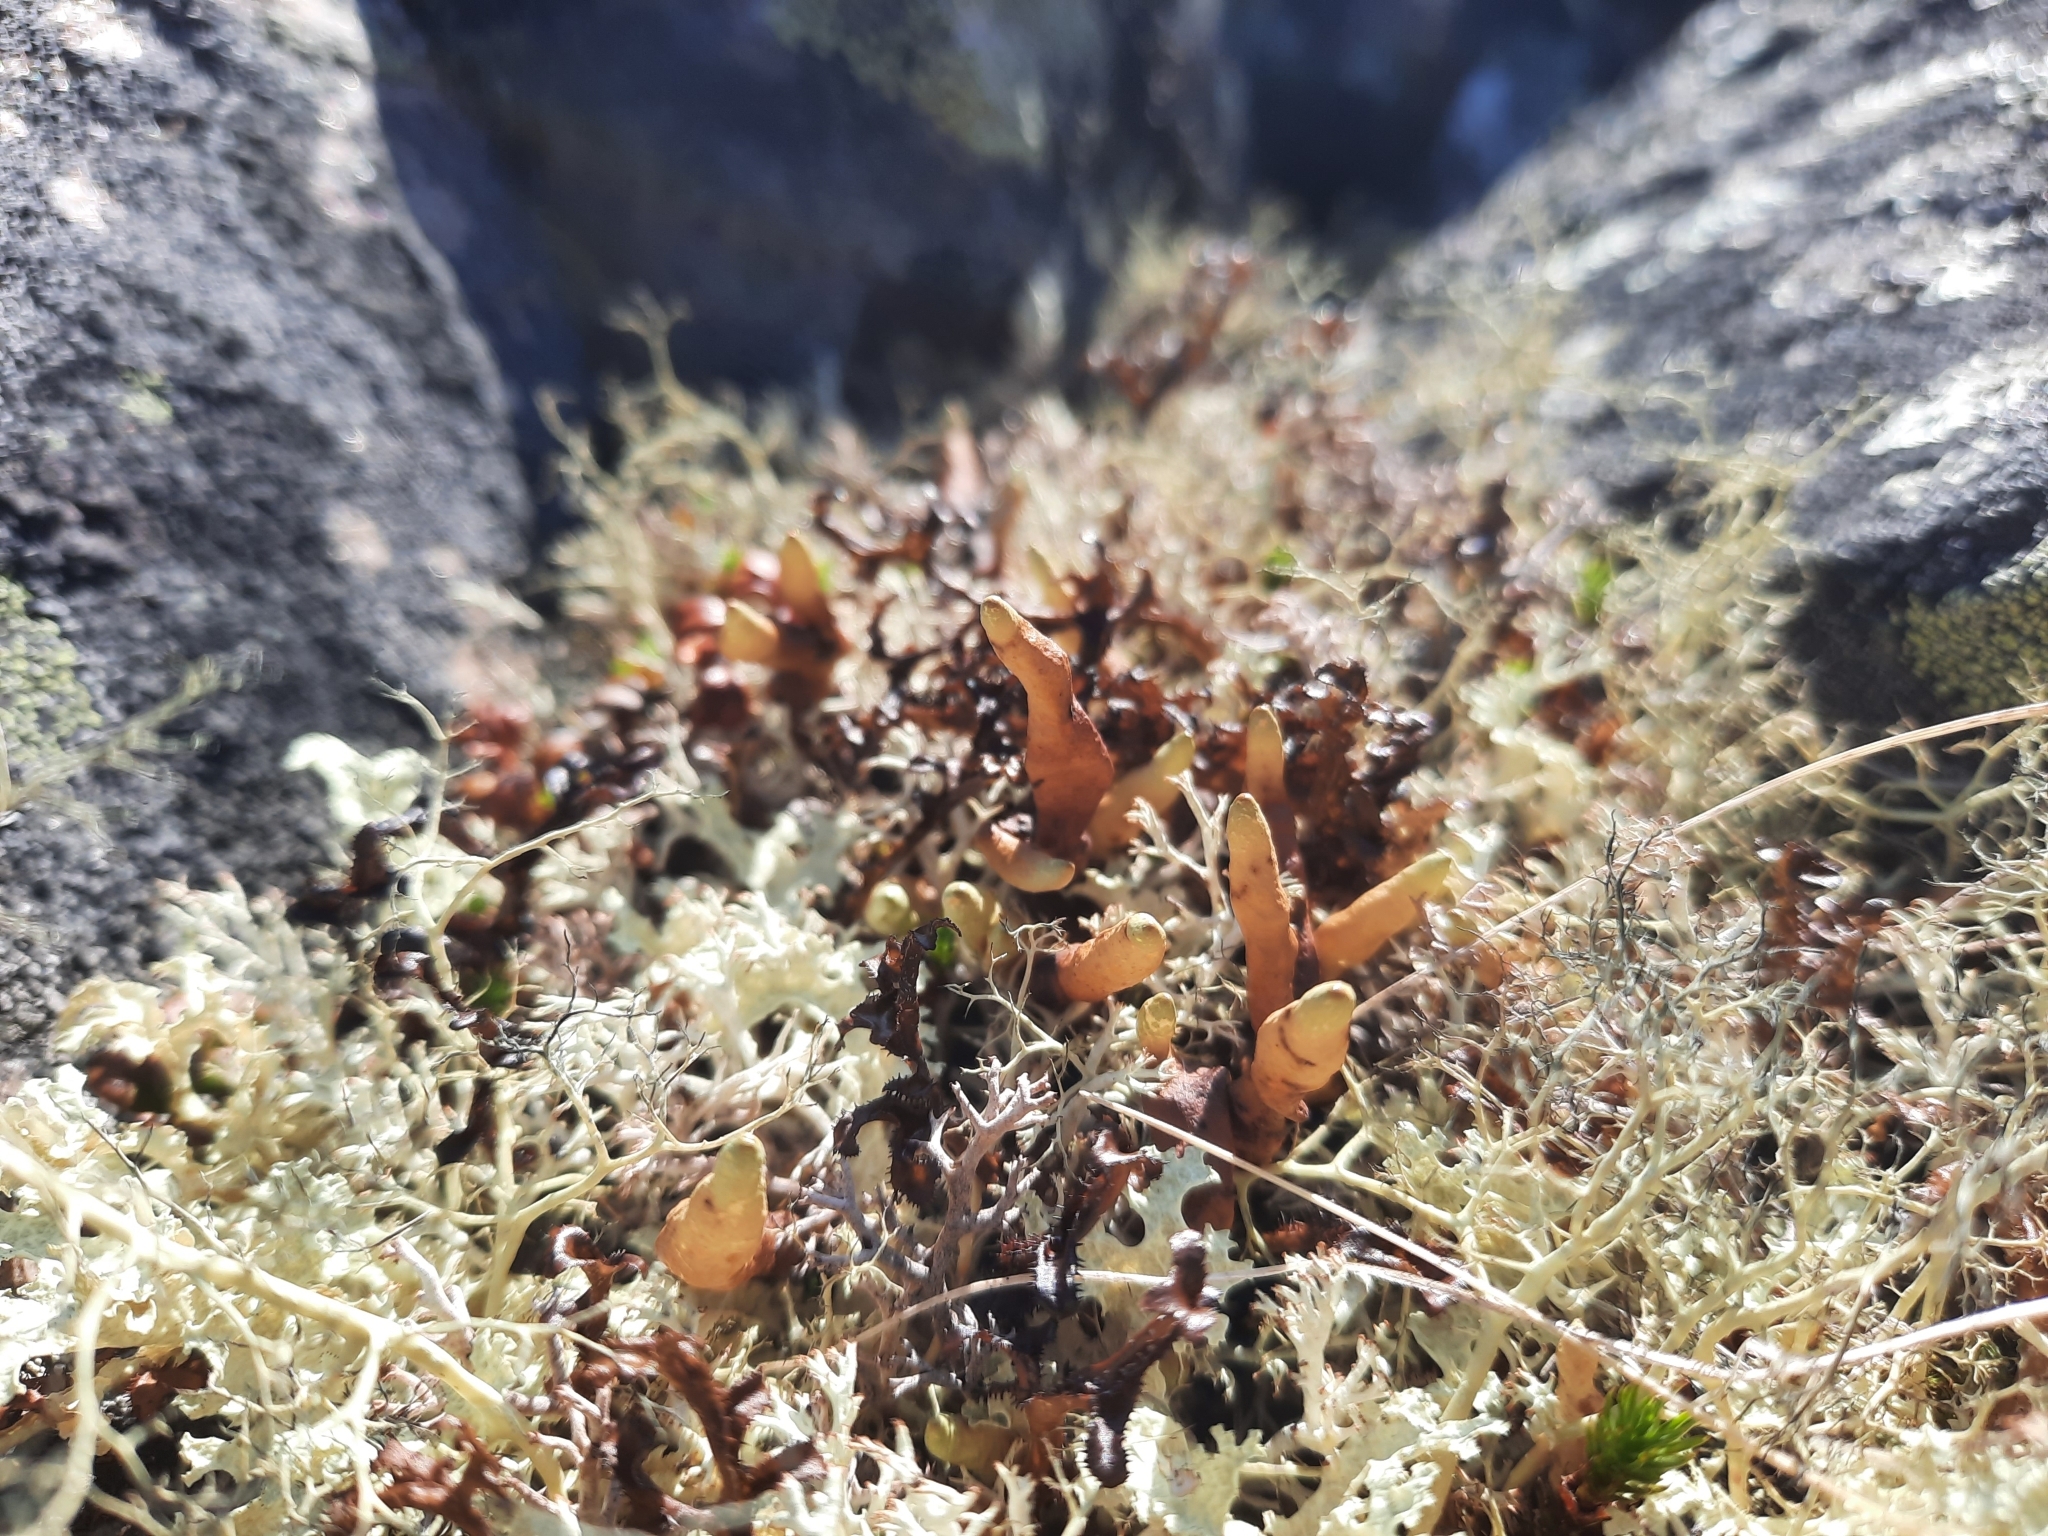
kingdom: Fungi
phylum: Ascomycota
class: Lecanoromycetes
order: Lecanorales
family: Parmeliaceae
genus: Dactylina
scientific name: Dactylina arctica
